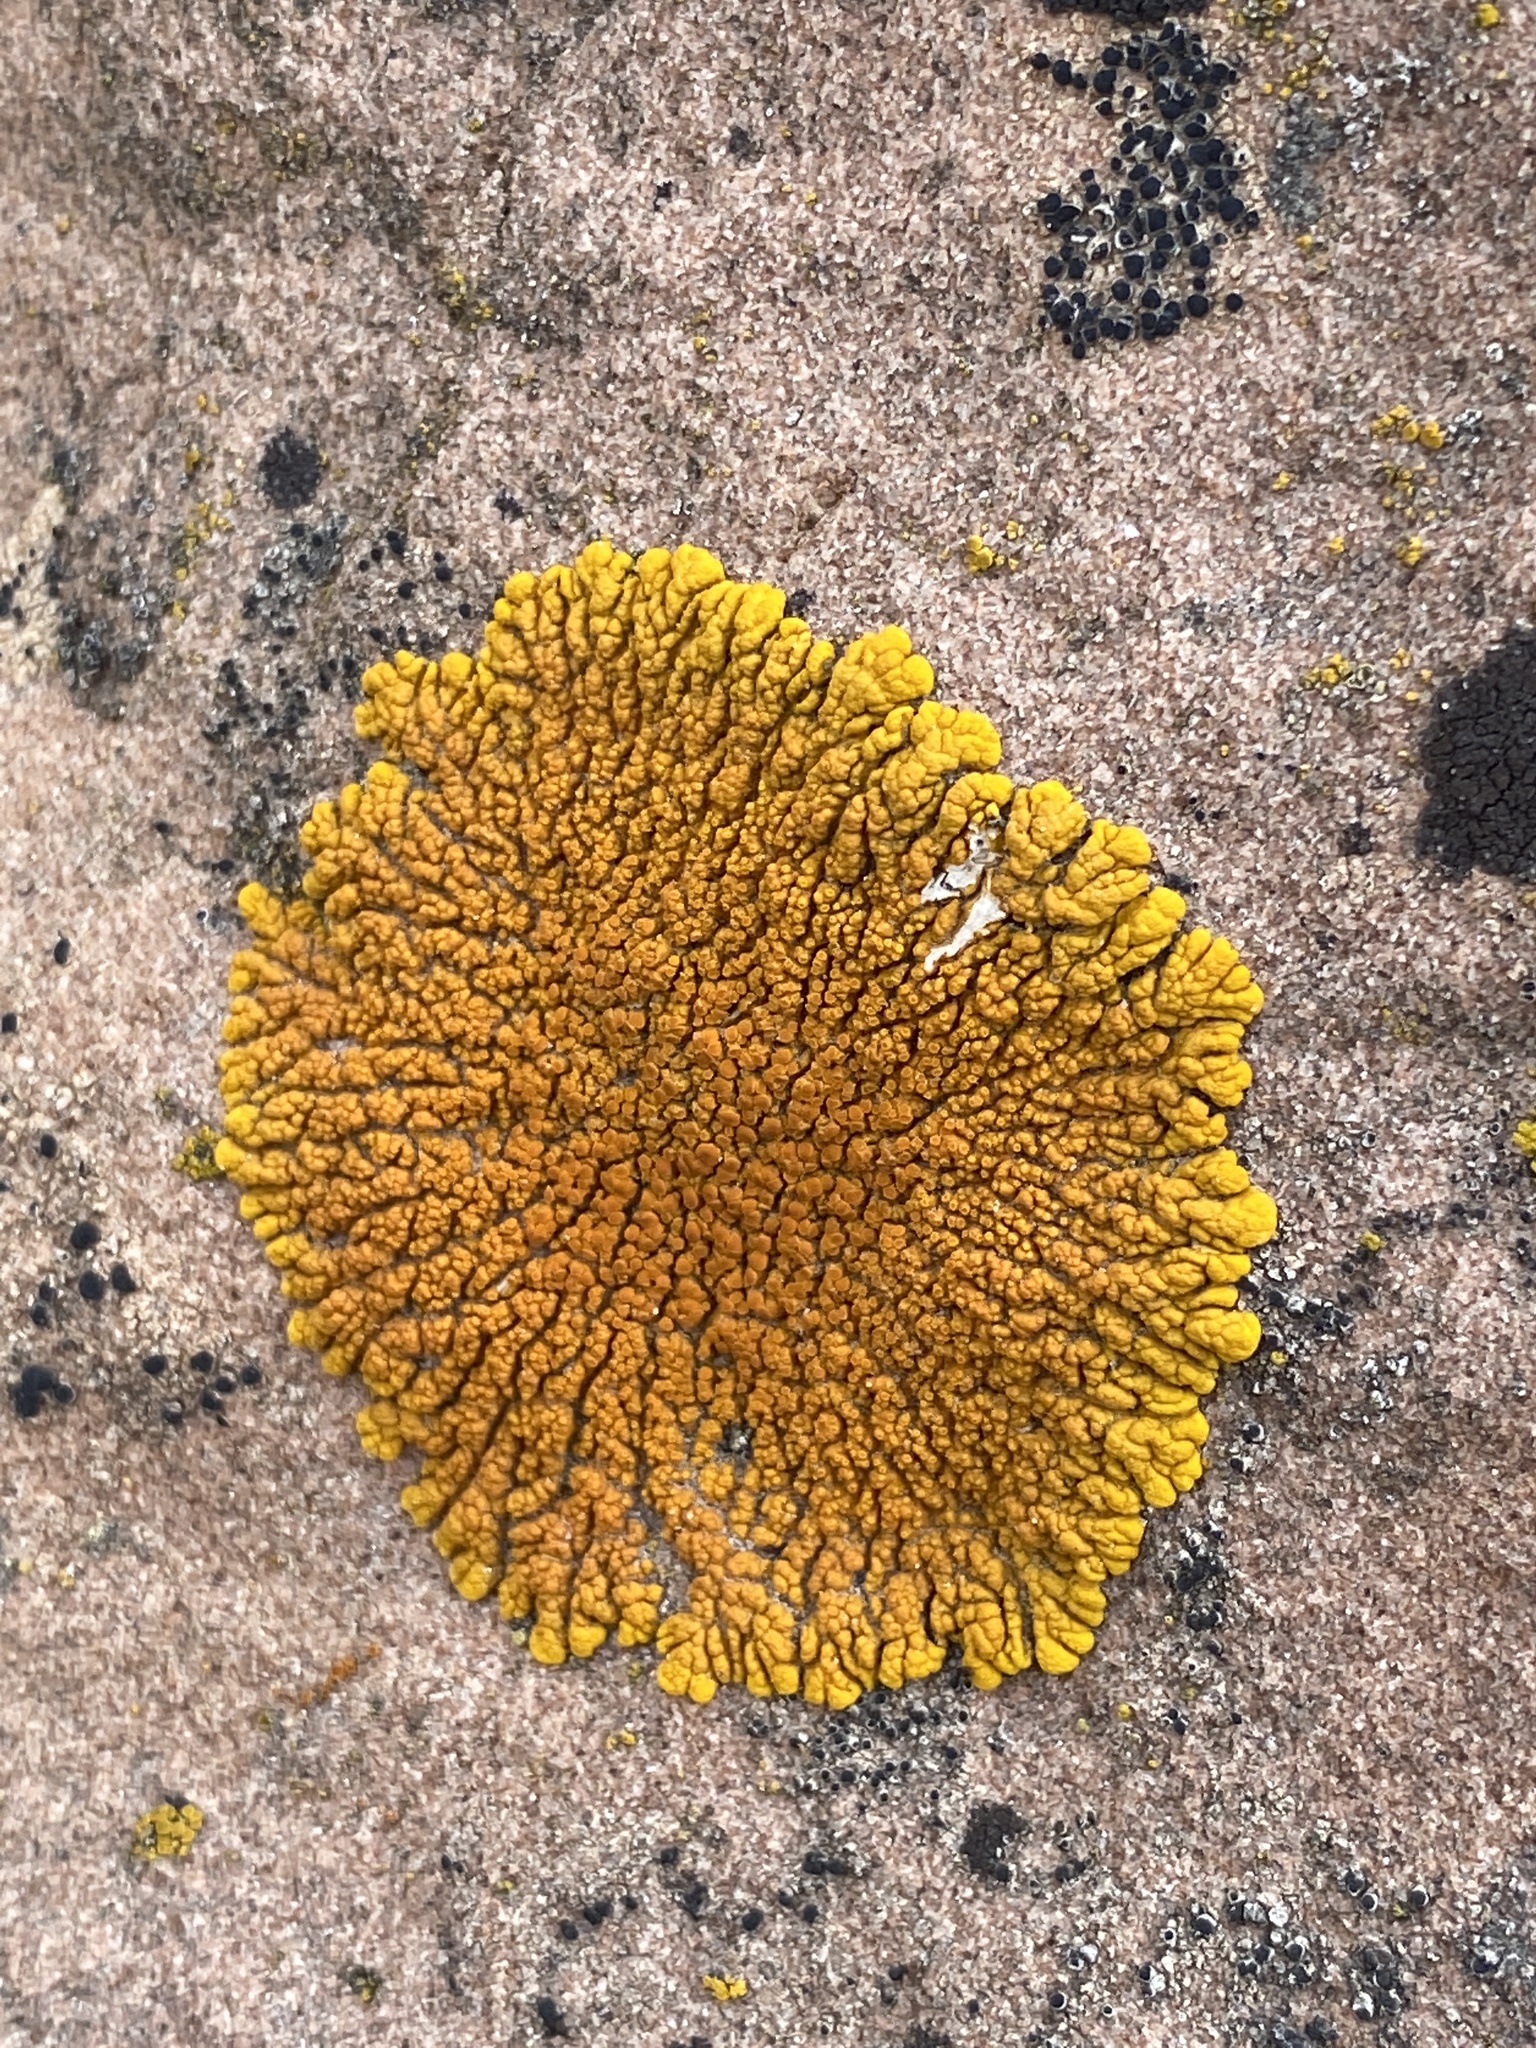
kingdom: Fungi
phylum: Ascomycota
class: Lecanoromycetes
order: Teloschistales
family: Teloschistaceae
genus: Golubkovia
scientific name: Golubkovia trachyphylla
